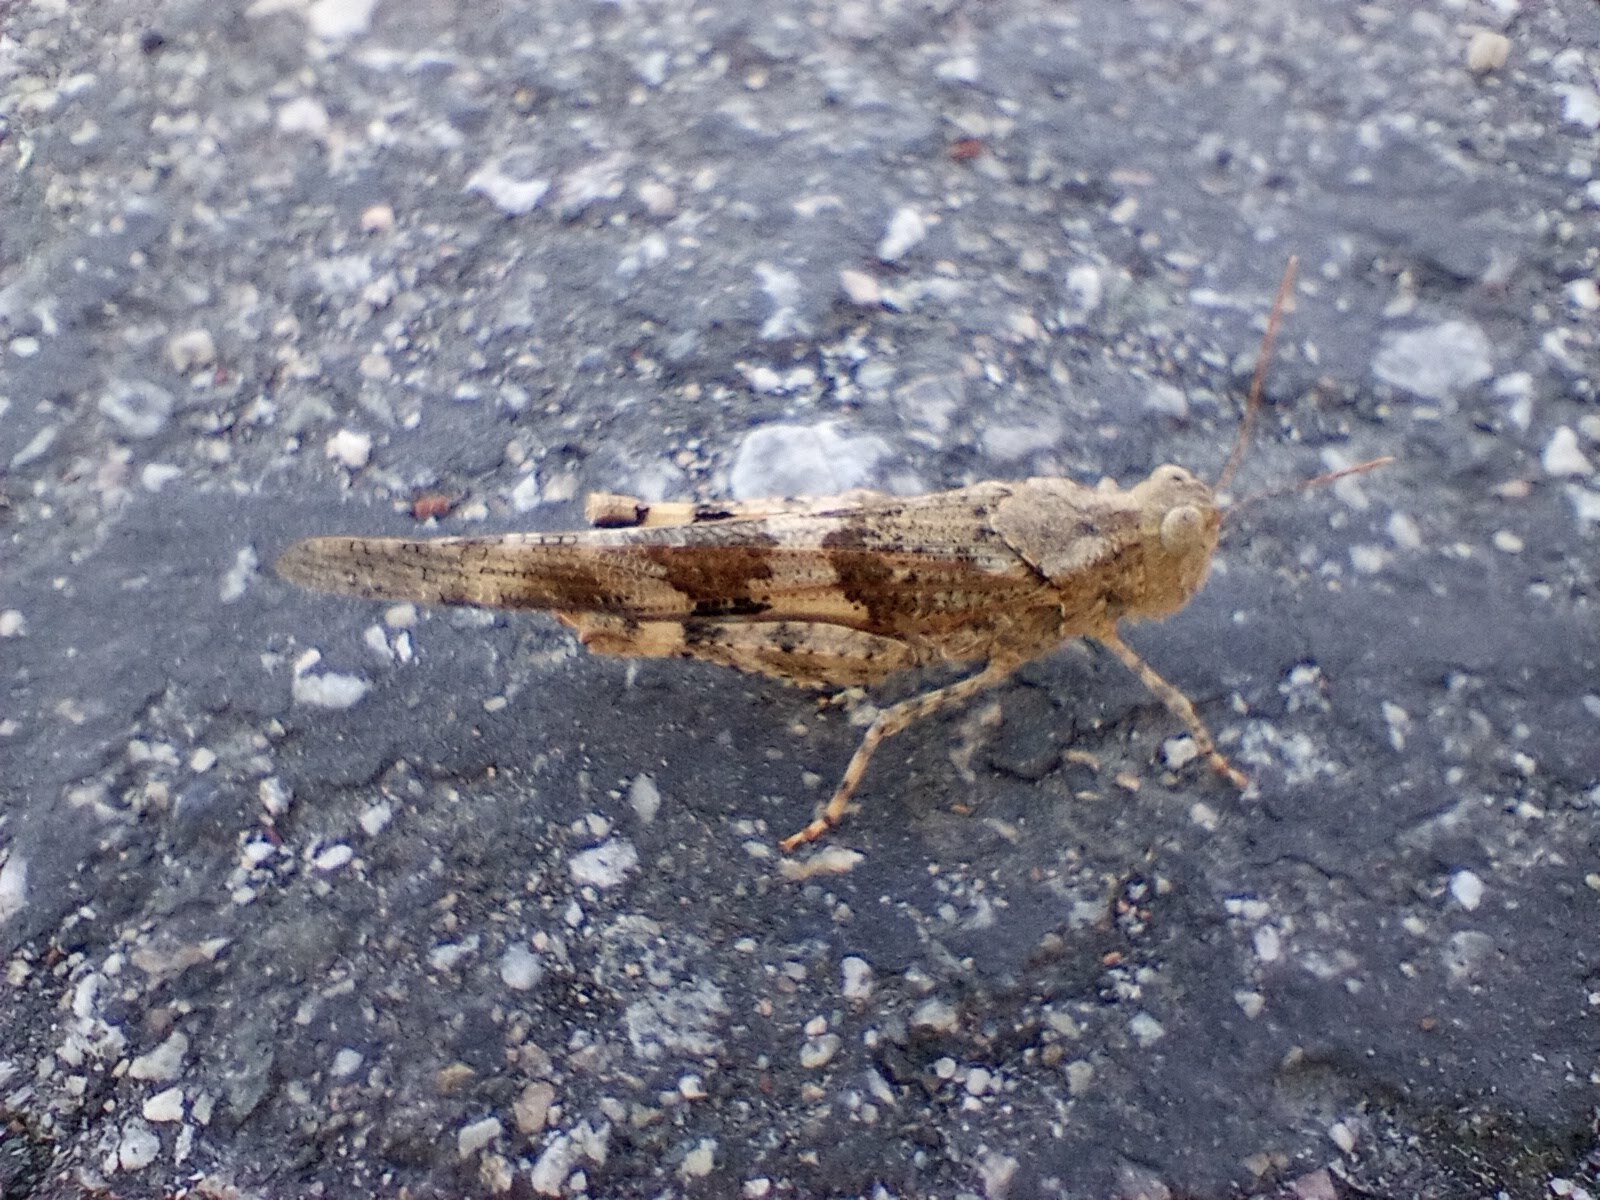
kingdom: Animalia
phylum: Arthropoda
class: Insecta
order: Orthoptera
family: Acrididae
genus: Trimerotropis
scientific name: Trimerotropis pallidipennis
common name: Pallid-winged grasshopper
